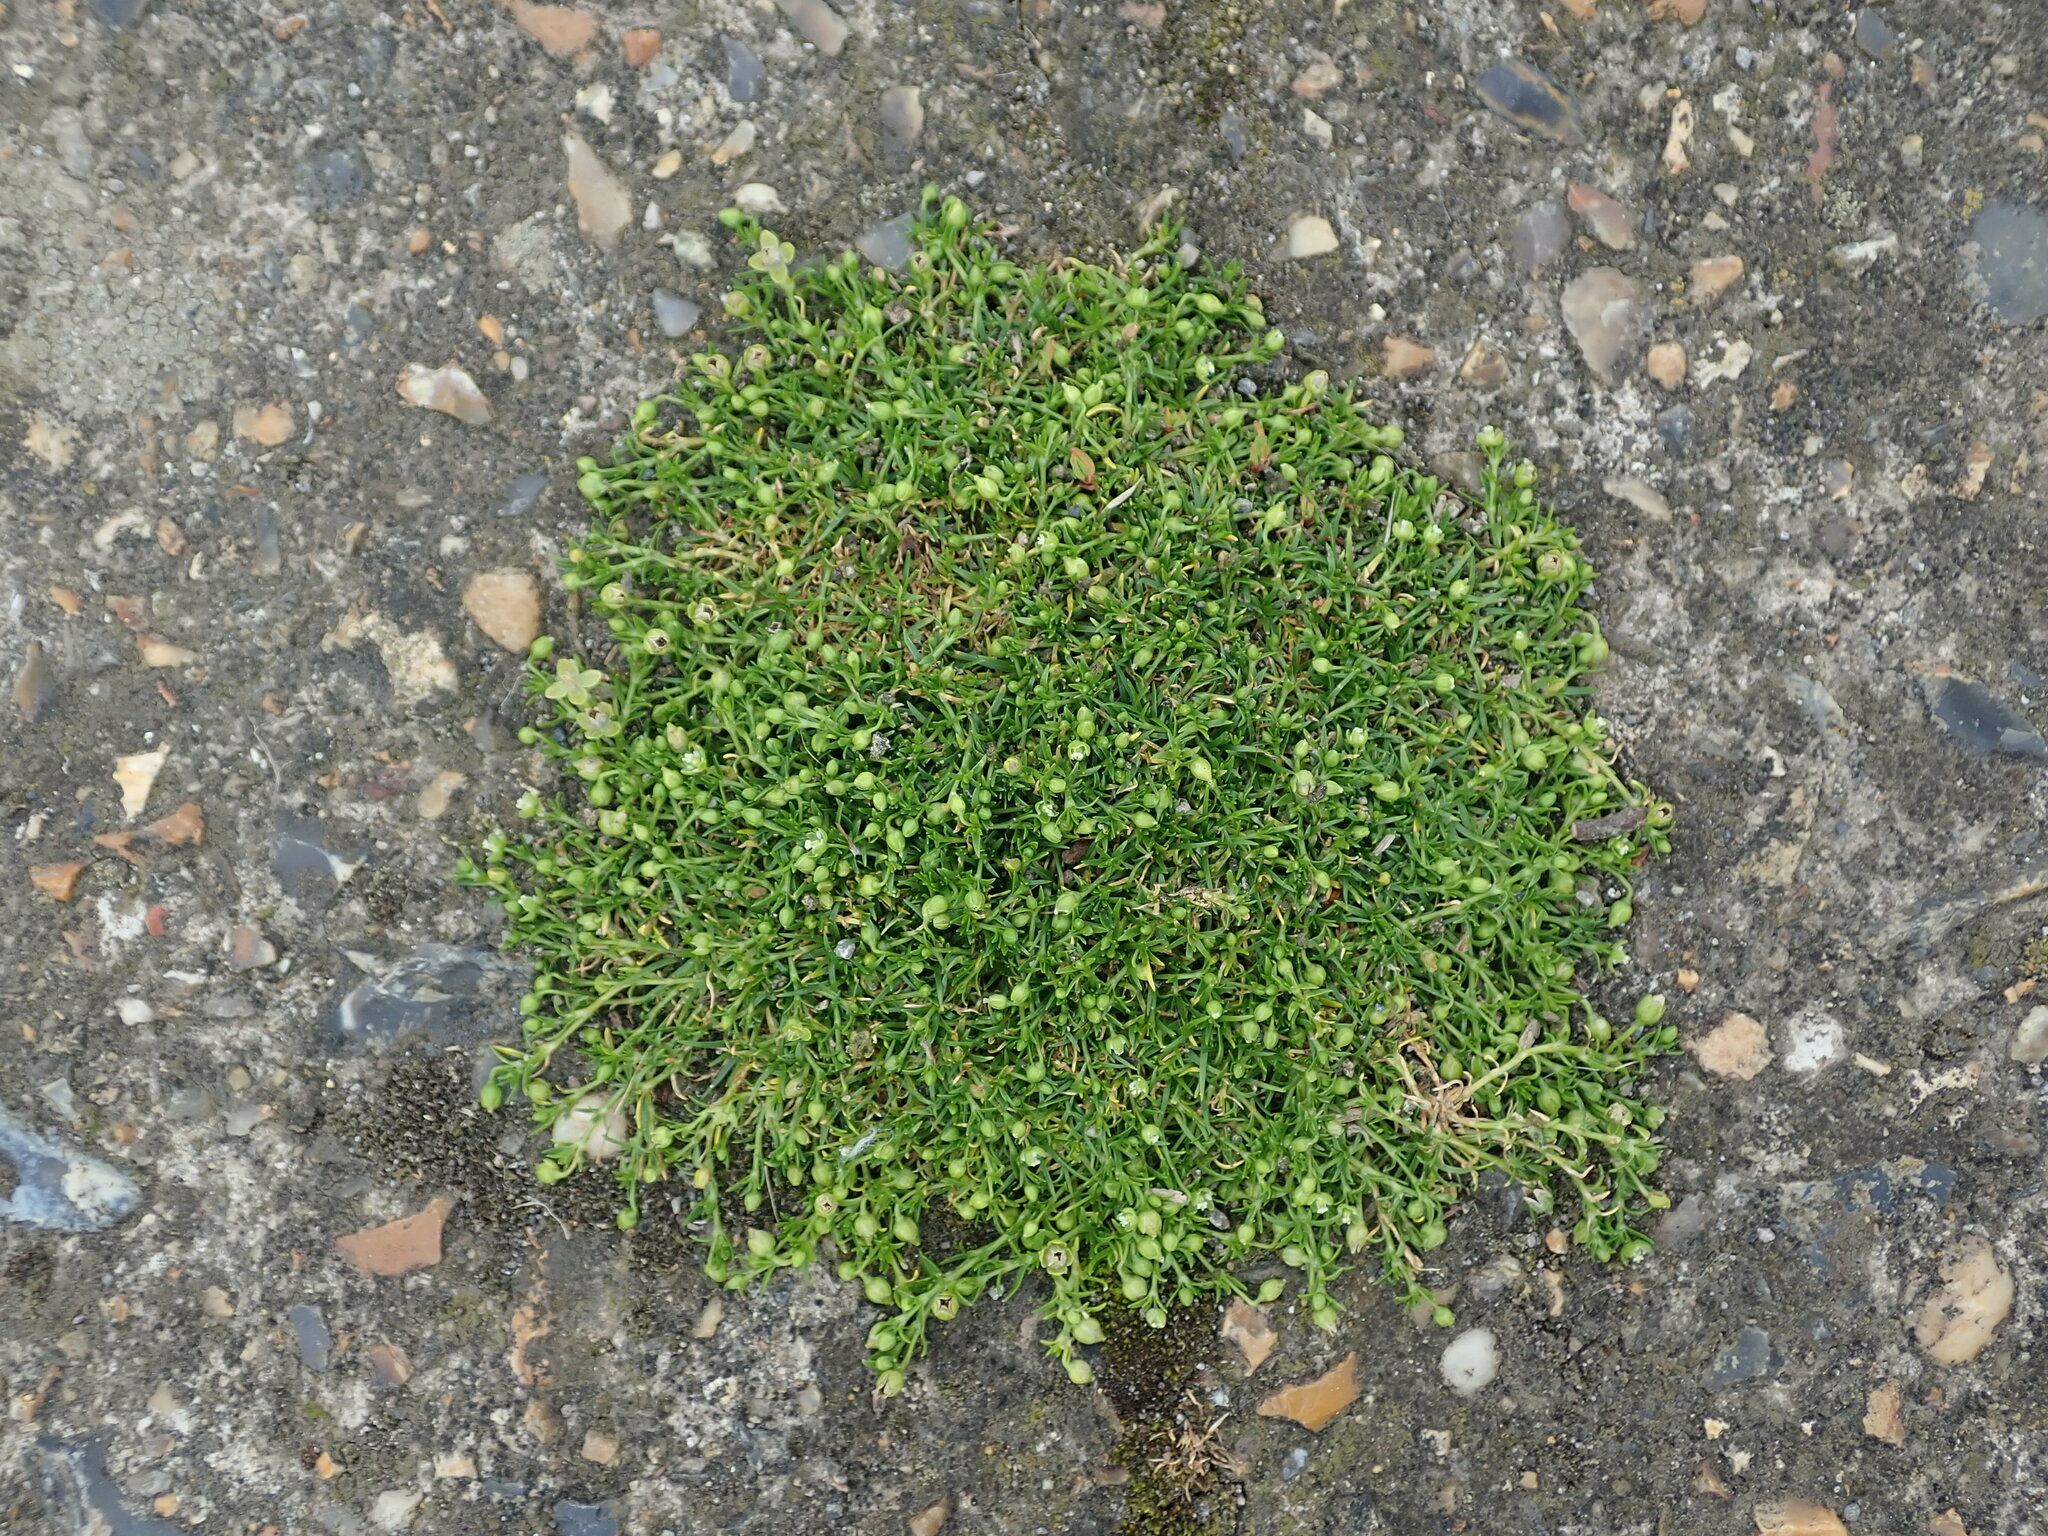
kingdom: Plantae
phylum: Tracheophyta
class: Magnoliopsida
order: Caryophyllales
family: Caryophyllaceae
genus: Sagina
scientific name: Sagina procumbens
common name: Procumbent pearlwort
